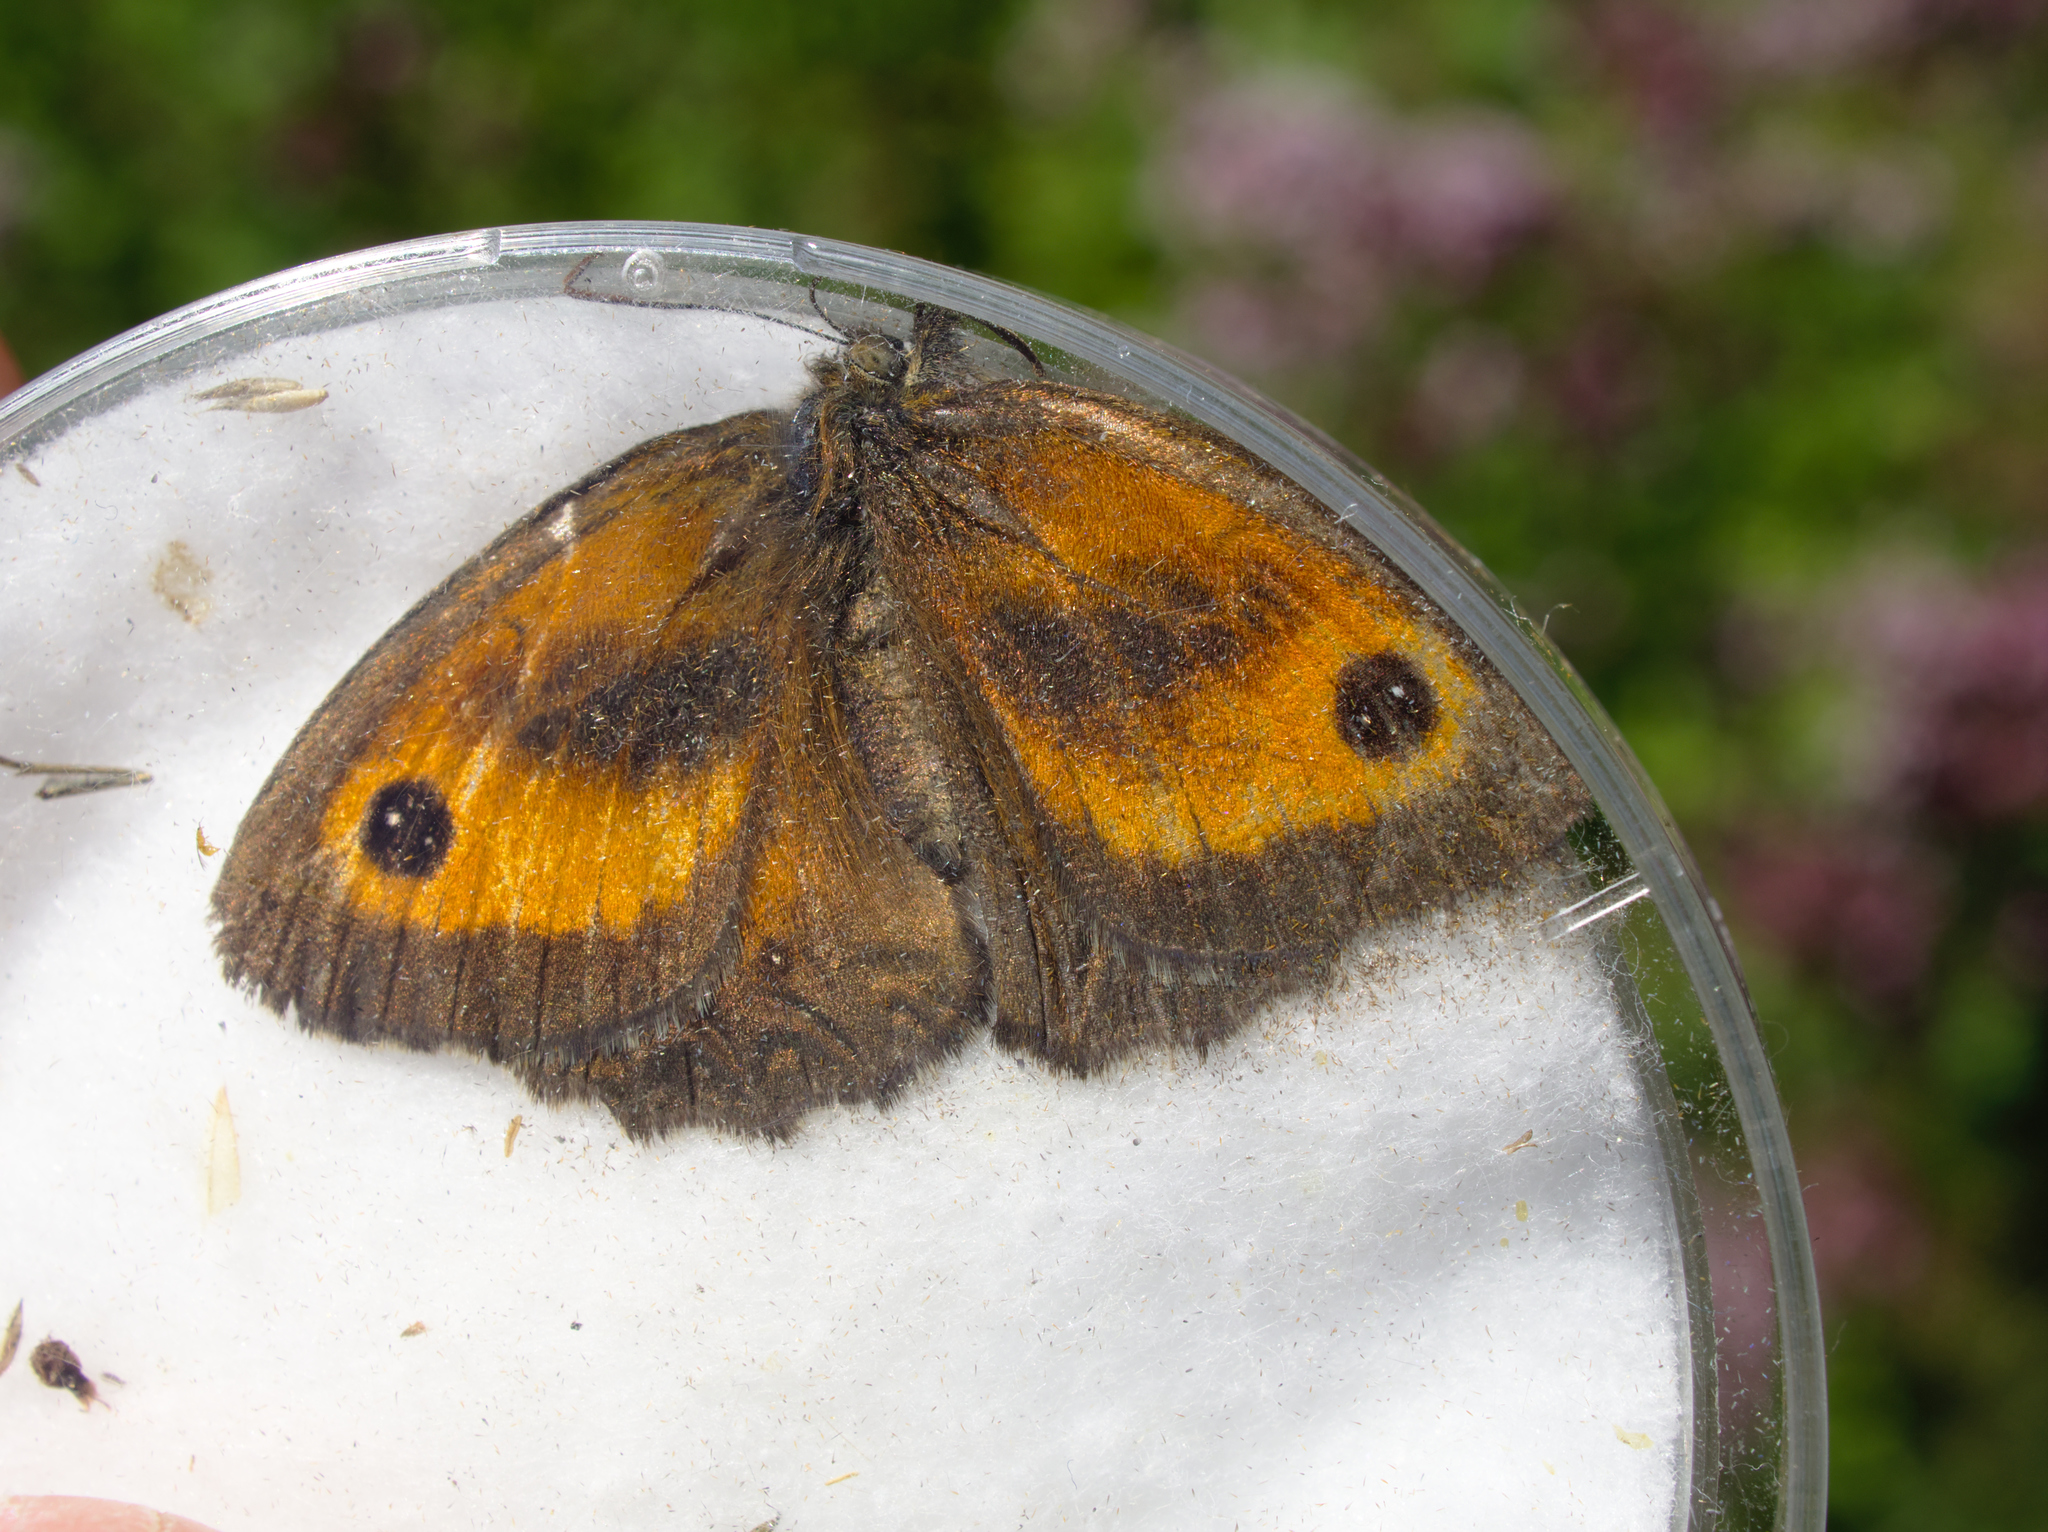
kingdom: Animalia
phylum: Arthropoda
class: Insecta
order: Lepidoptera
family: Nymphalidae
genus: Pyronia
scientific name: Pyronia tithonus
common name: Gatekeeper
